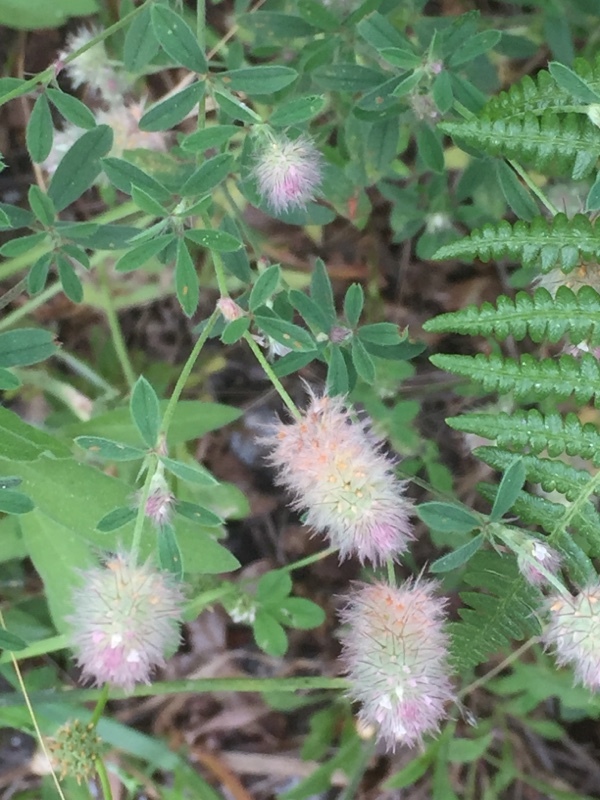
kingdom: Plantae
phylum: Tracheophyta
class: Magnoliopsida
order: Fabales
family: Fabaceae
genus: Trifolium
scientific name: Trifolium arvense
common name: Hare's-foot clover
